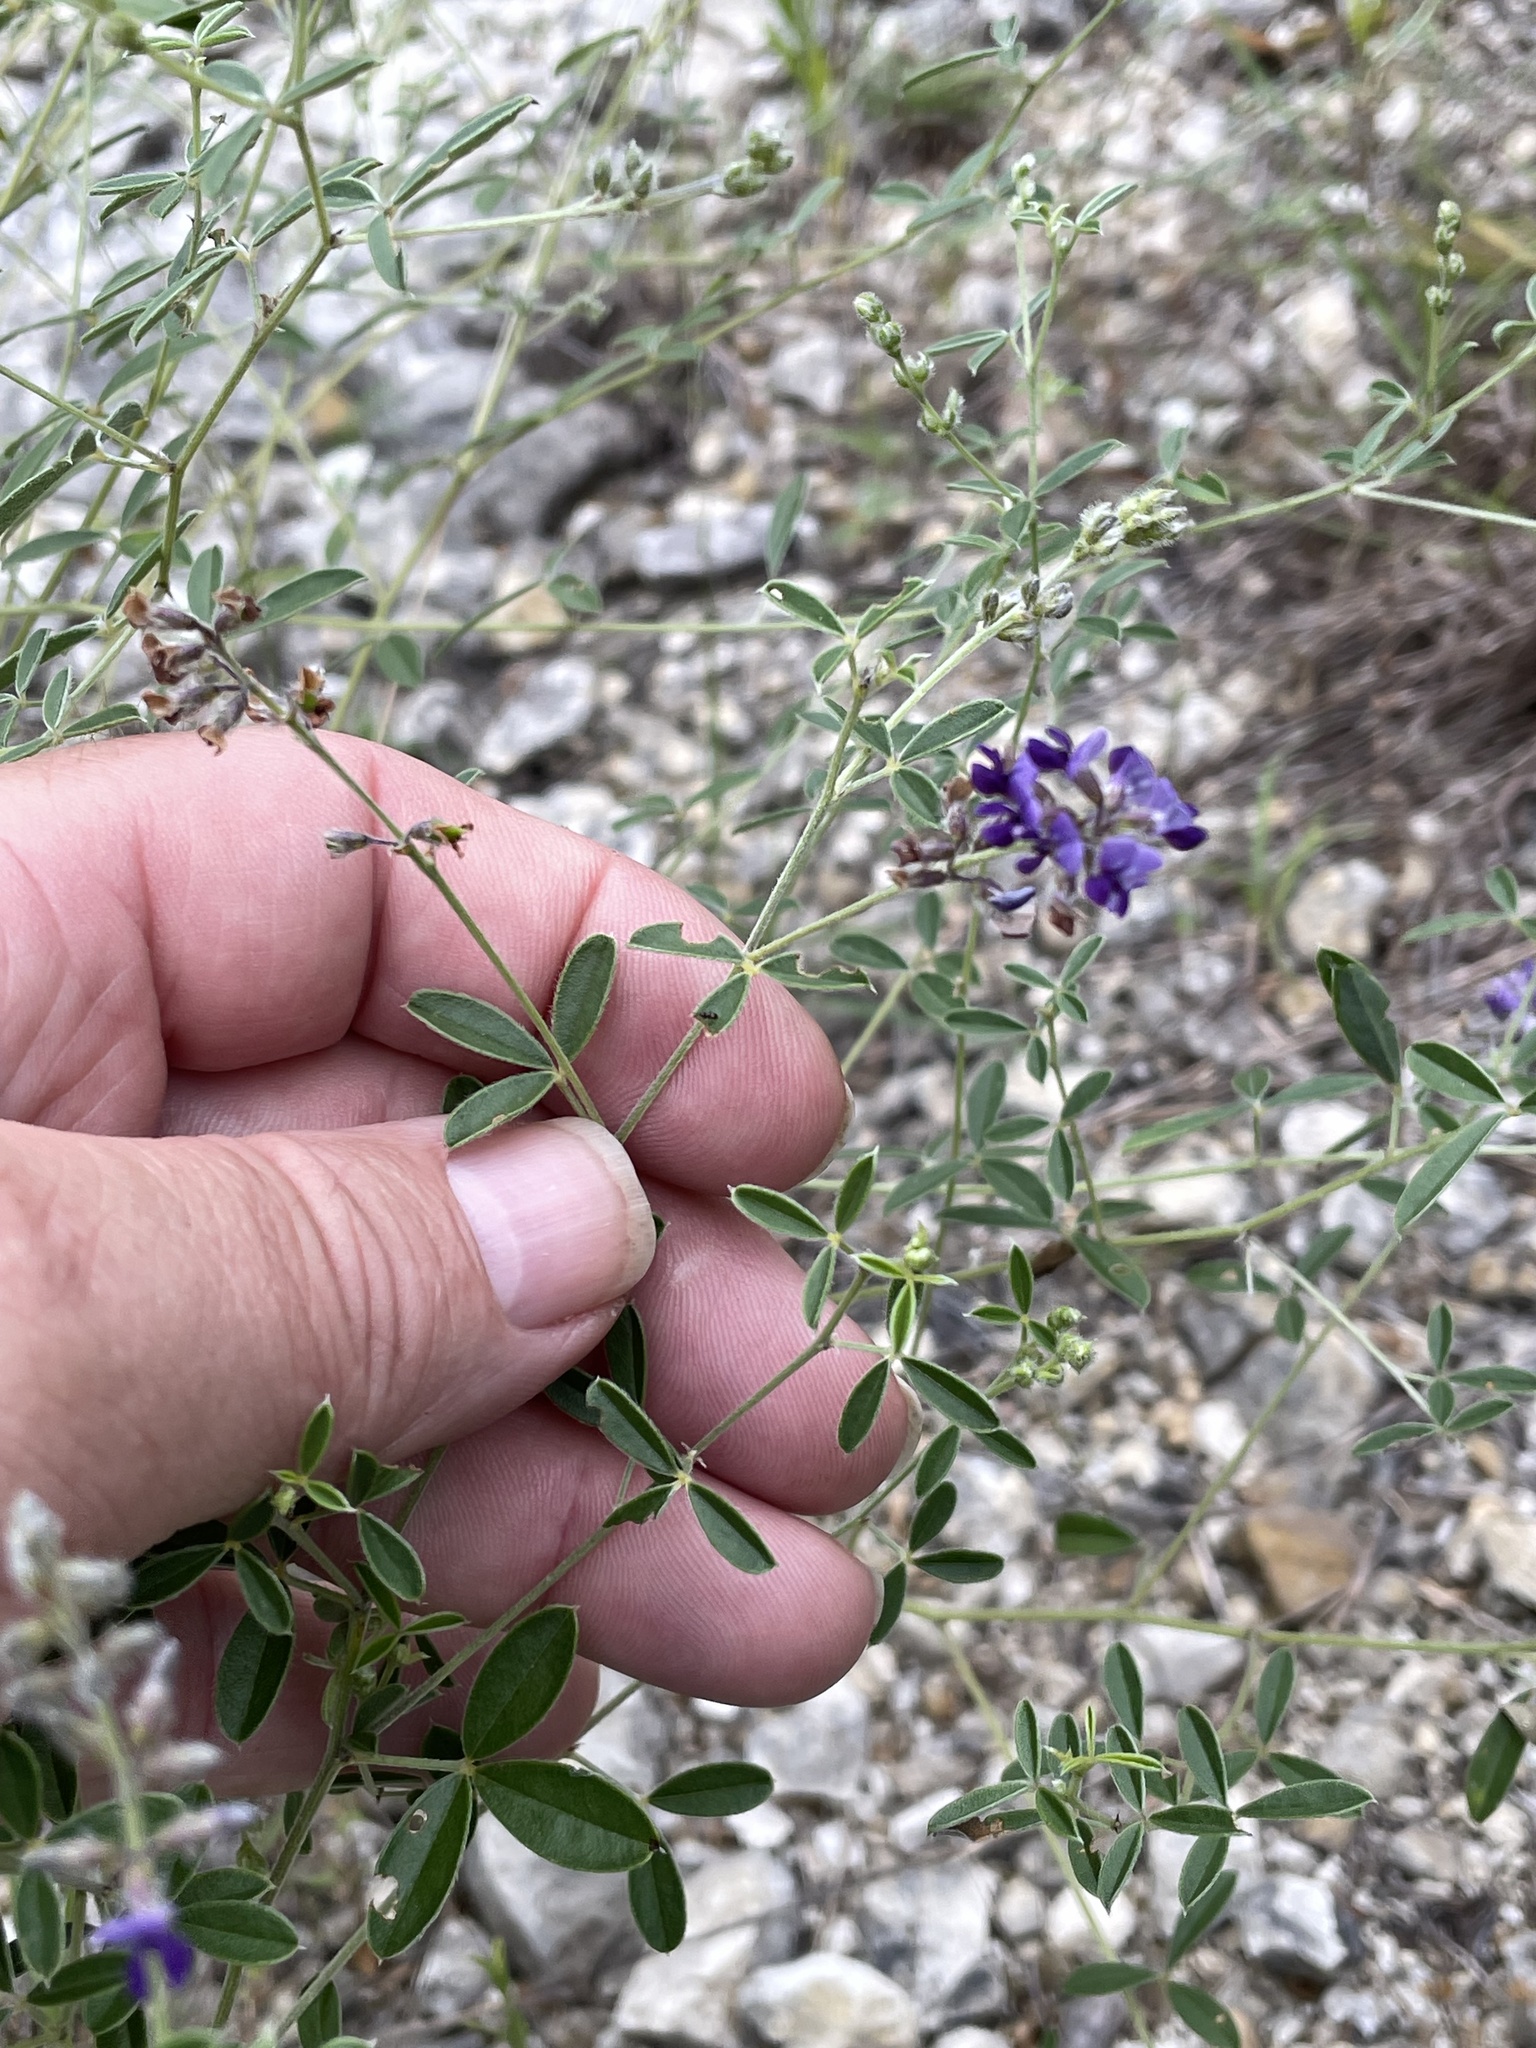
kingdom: Plantae
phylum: Tracheophyta
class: Magnoliopsida
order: Fabales
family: Fabaceae
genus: Pediomelum
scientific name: Pediomelum tenuiflorum
